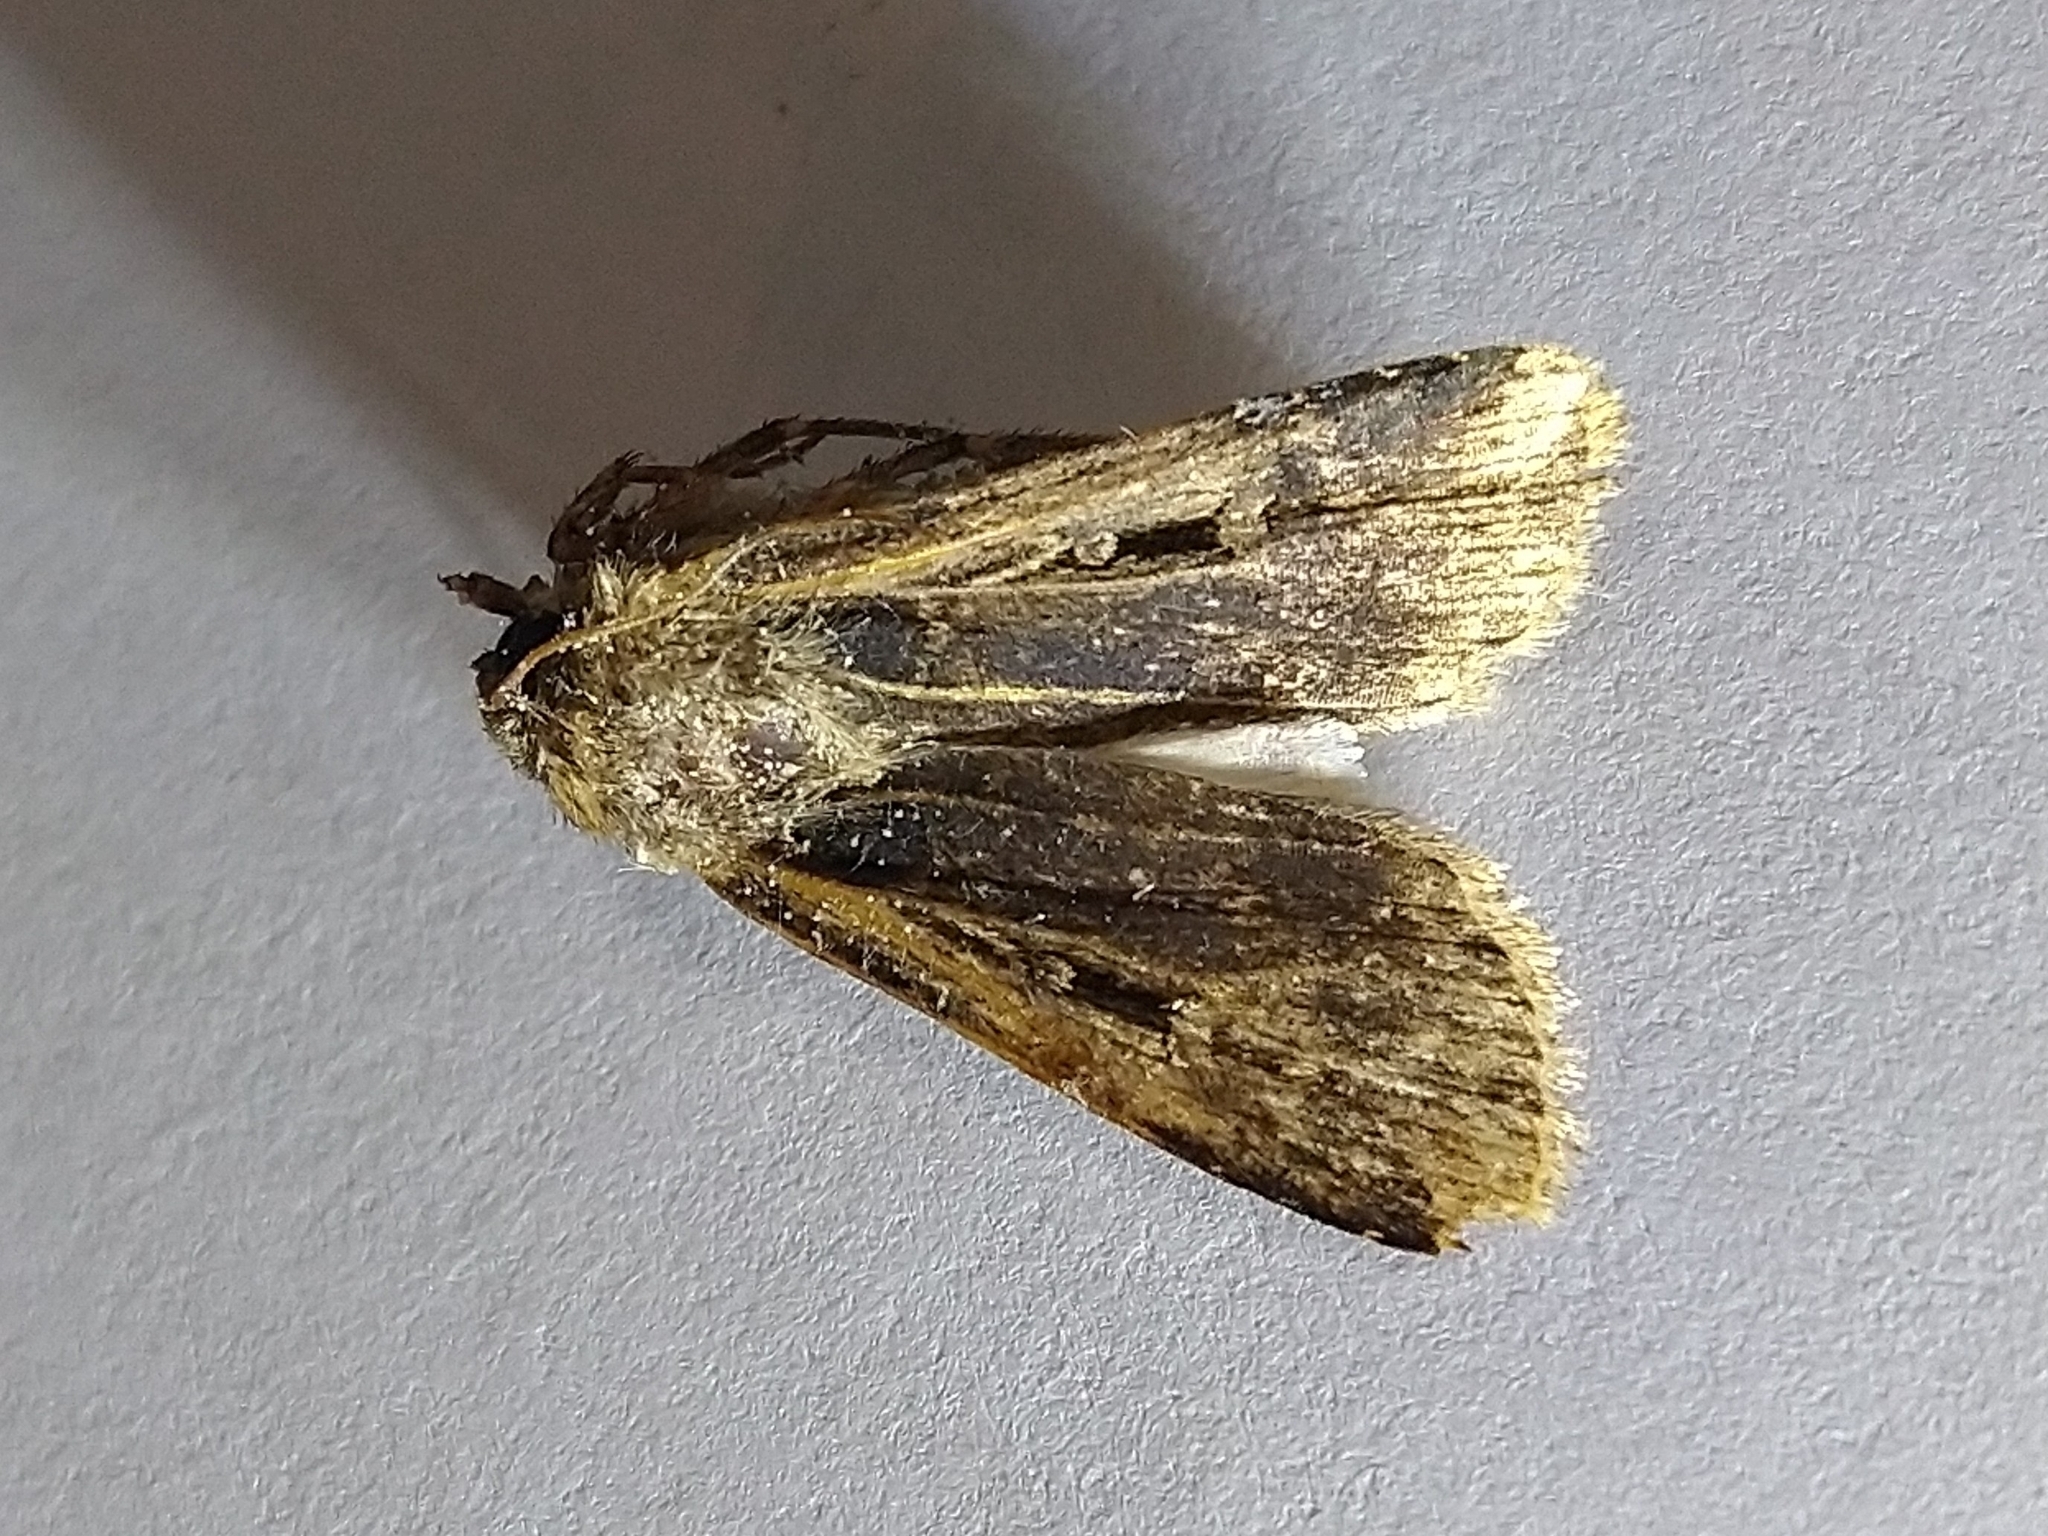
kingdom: Animalia
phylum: Arthropoda
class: Insecta
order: Lepidoptera
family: Noctuidae
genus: Feltia
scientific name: Feltia subterranea
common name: Granulate cutworm
